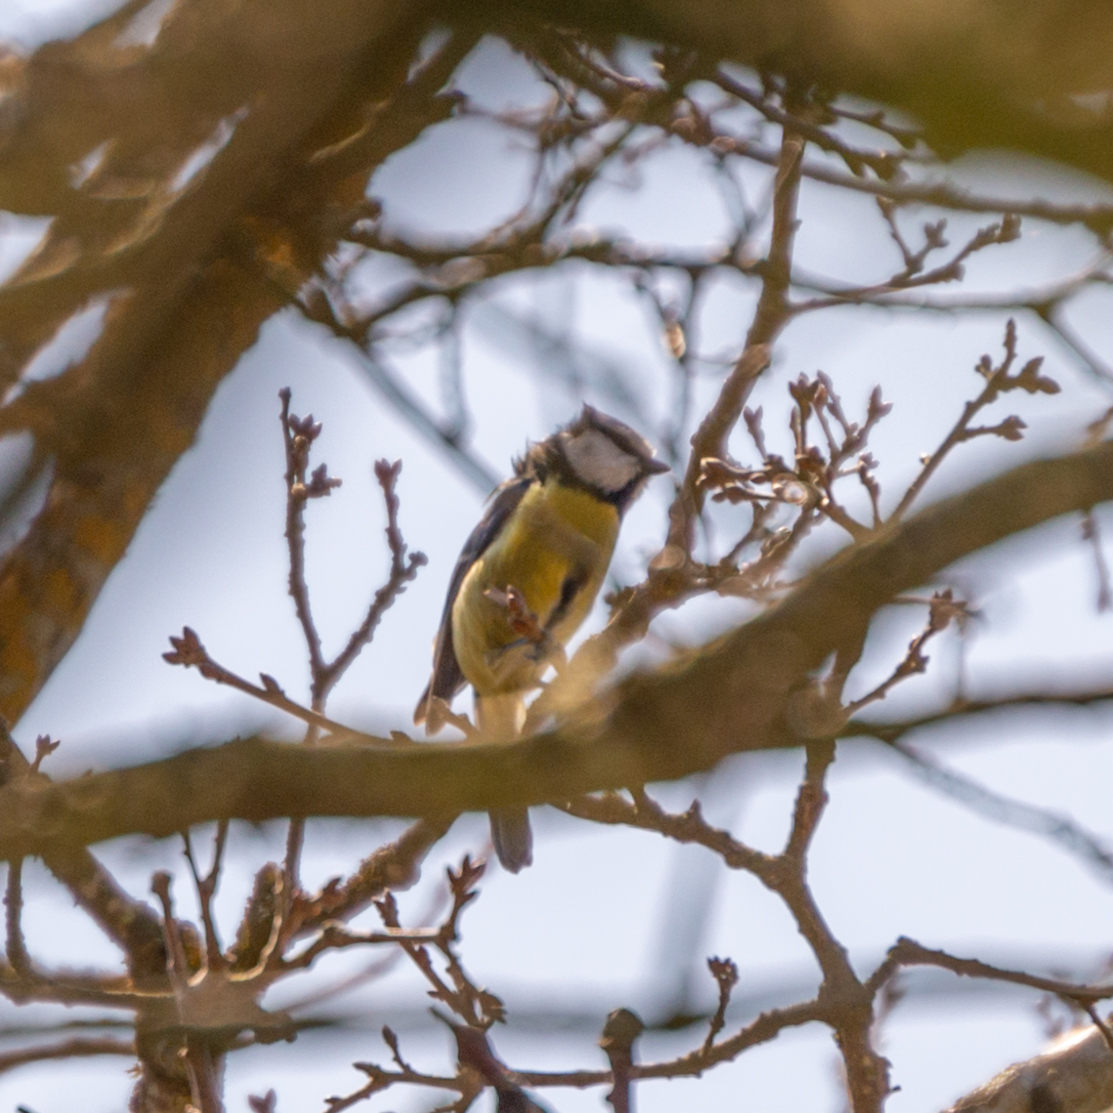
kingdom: Animalia
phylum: Chordata
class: Aves
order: Passeriformes
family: Paridae
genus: Cyanistes
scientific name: Cyanistes caeruleus
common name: Eurasian blue tit
